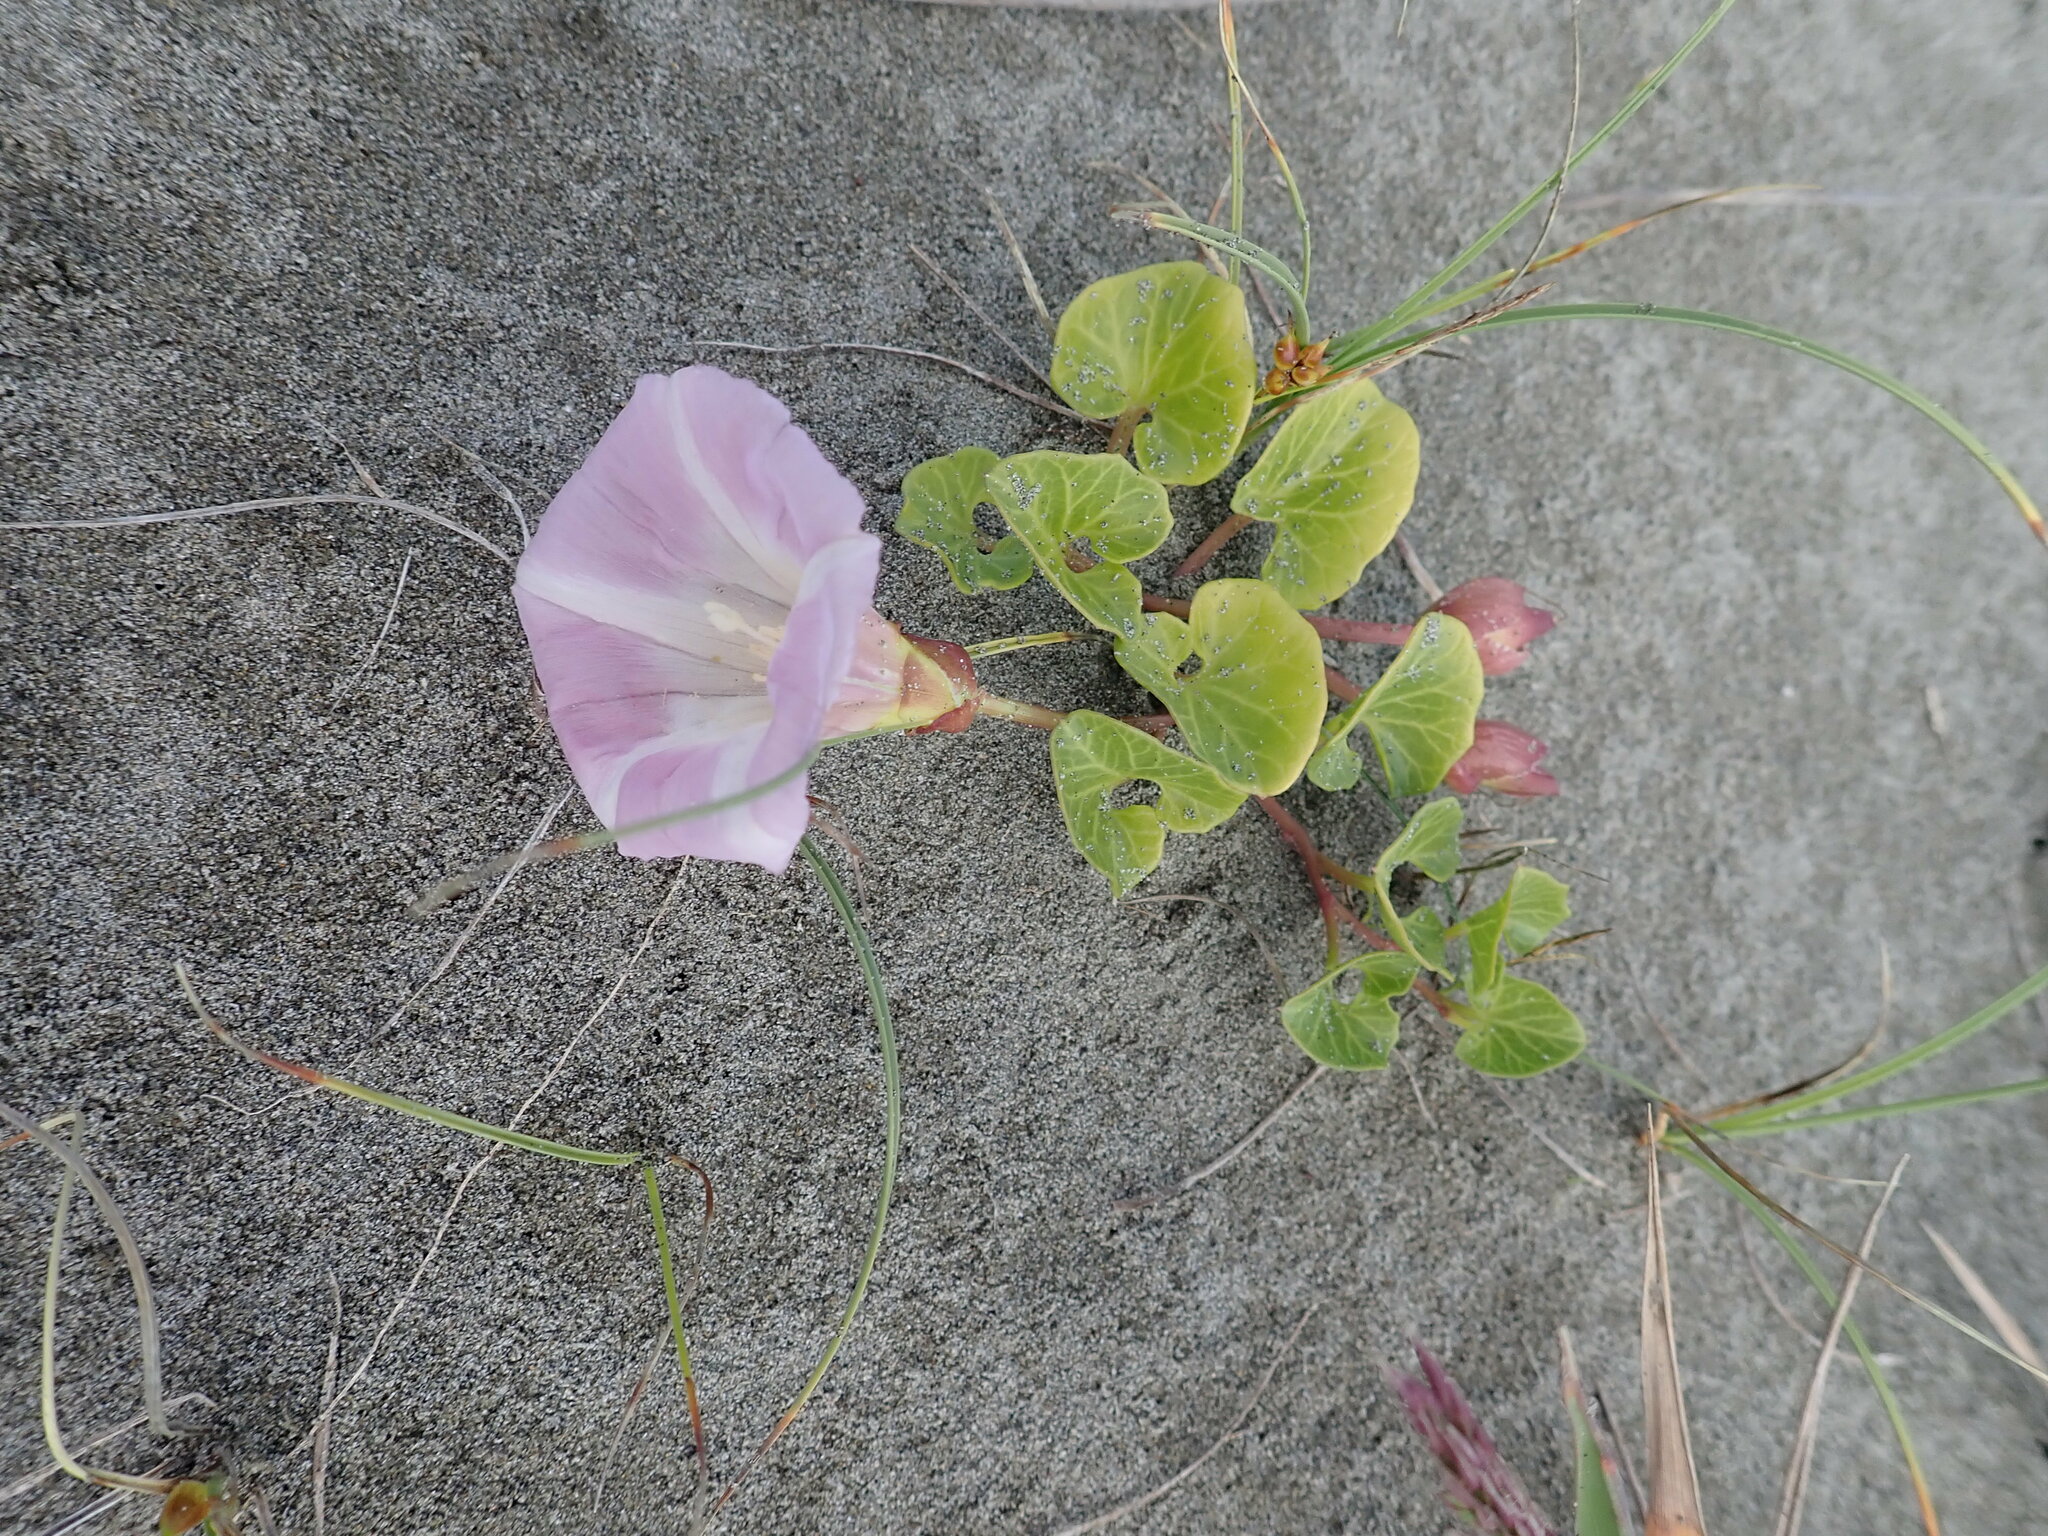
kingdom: Plantae
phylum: Tracheophyta
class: Magnoliopsida
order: Solanales
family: Convolvulaceae
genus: Calystegia
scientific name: Calystegia soldanella
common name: Sea bindweed
